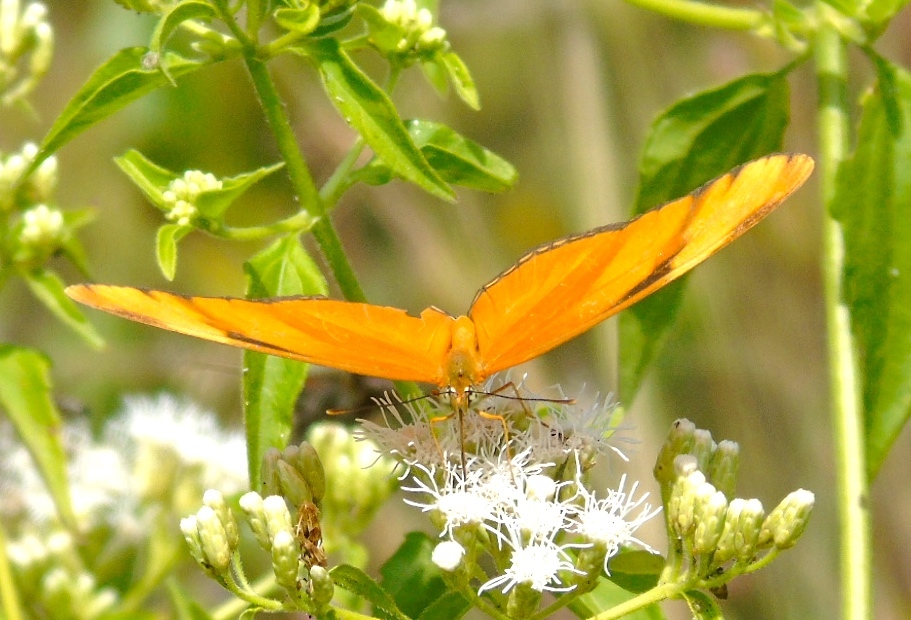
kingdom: Animalia
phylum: Arthropoda
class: Insecta
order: Lepidoptera
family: Nymphalidae
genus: Dryas
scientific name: Dryas iulia
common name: Flambeau
